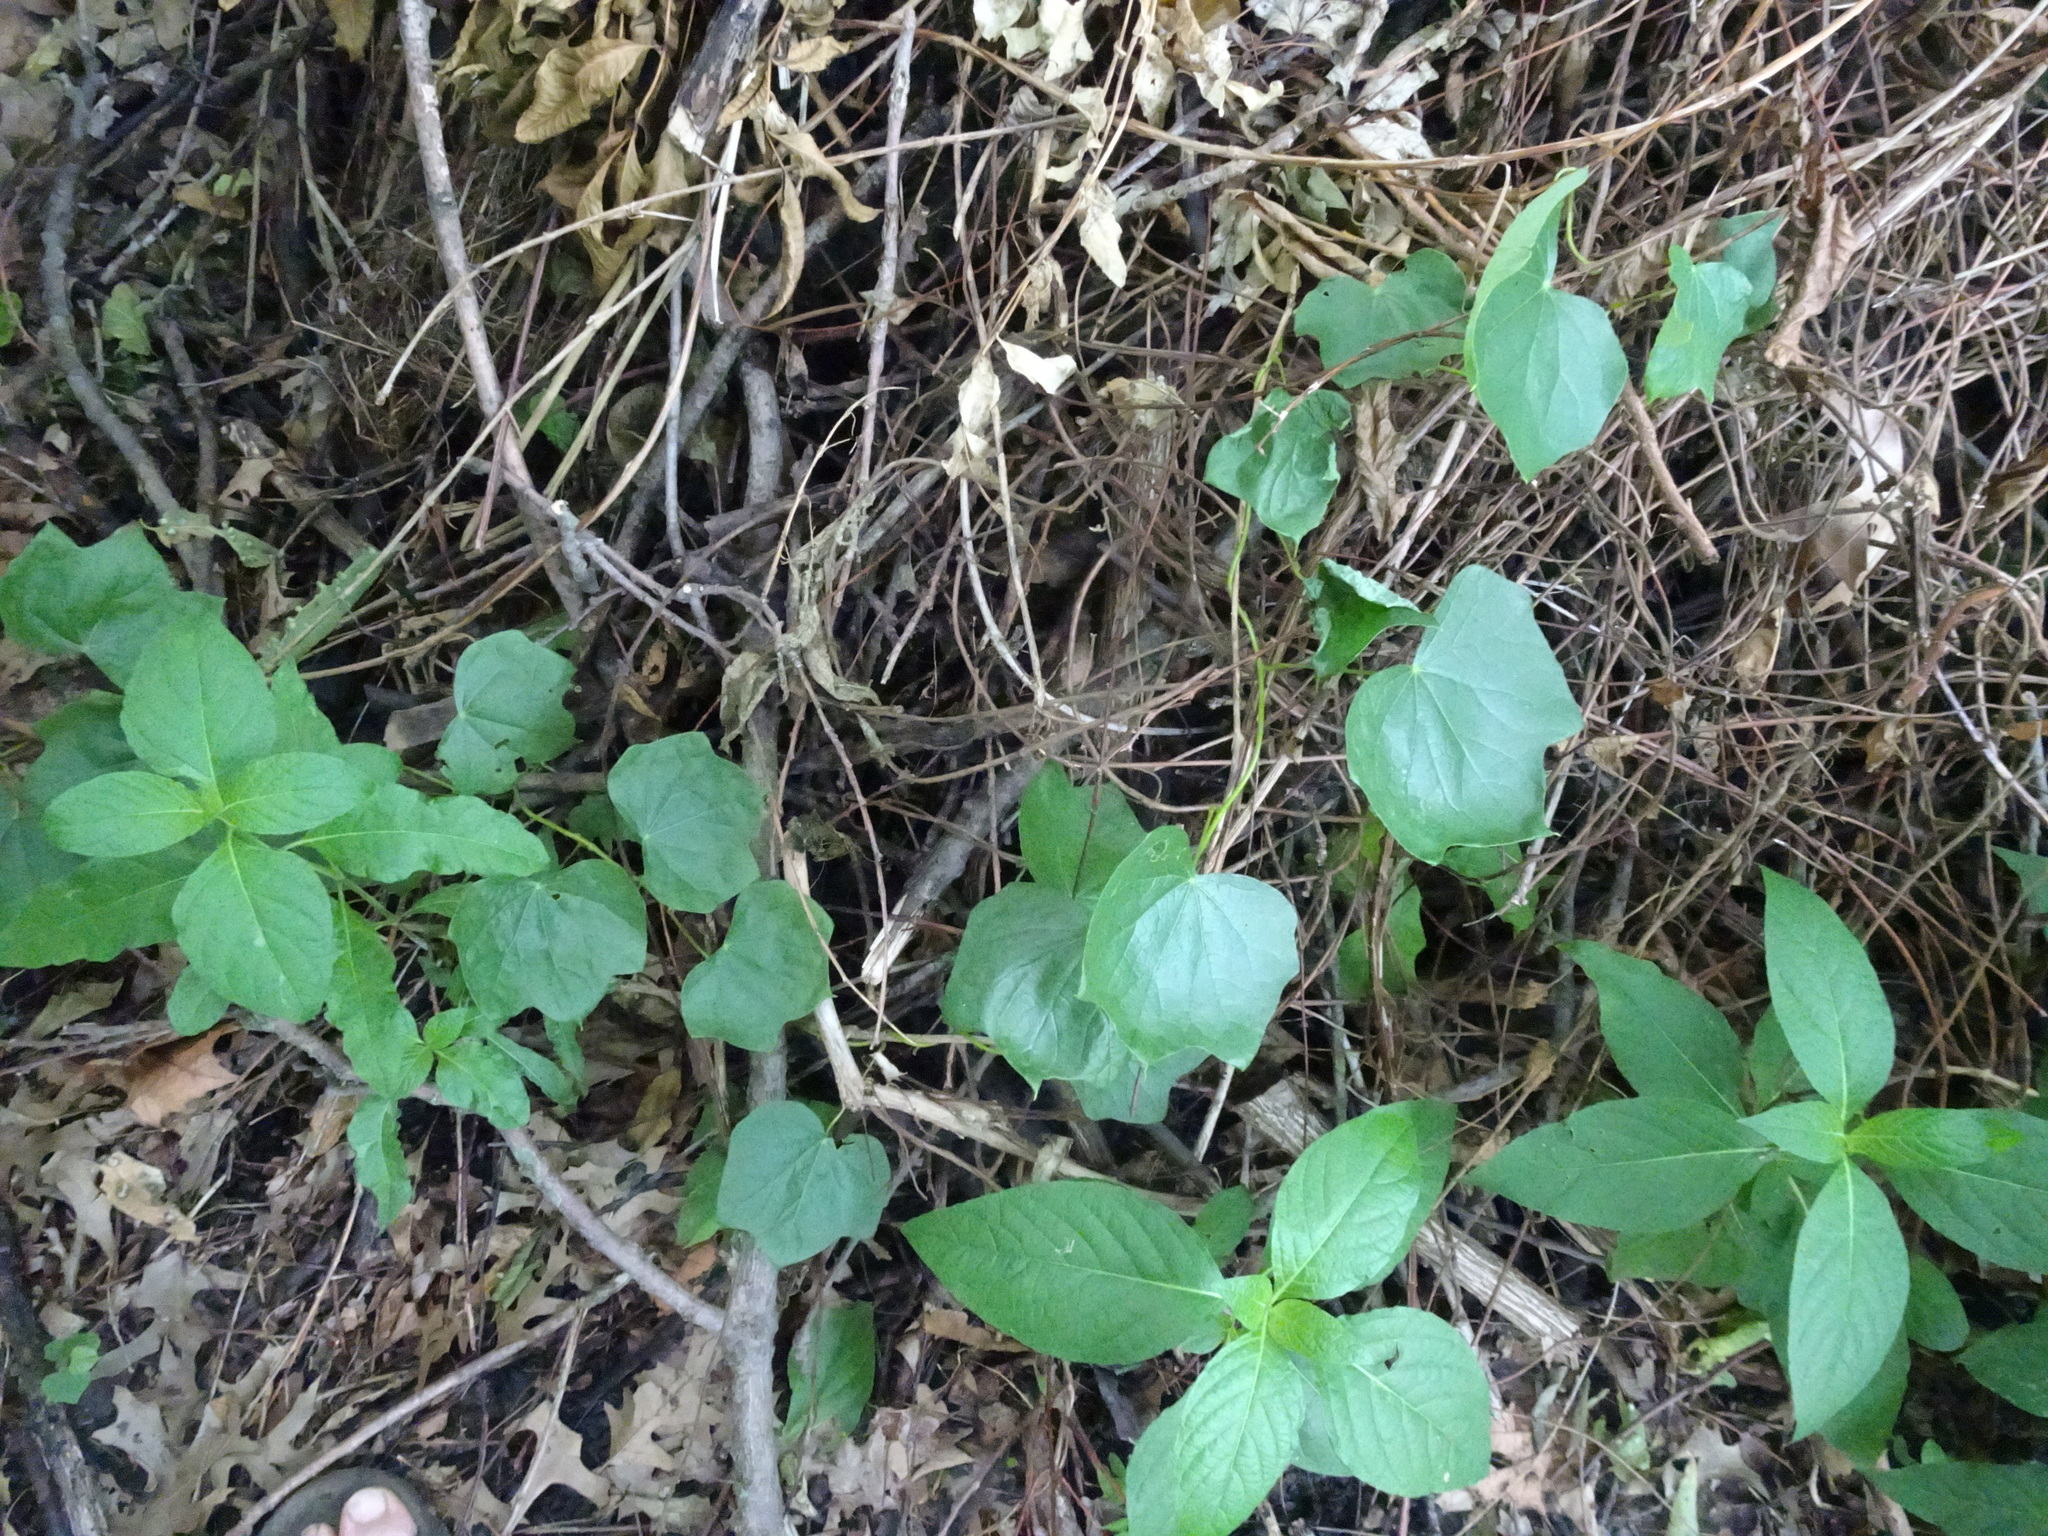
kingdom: Plantae
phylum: Tracheophyta
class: Magnoliopsida
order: Ranunculales
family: Menispermaceae
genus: Menispermum
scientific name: Menispermum canadense
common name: Moonseed
